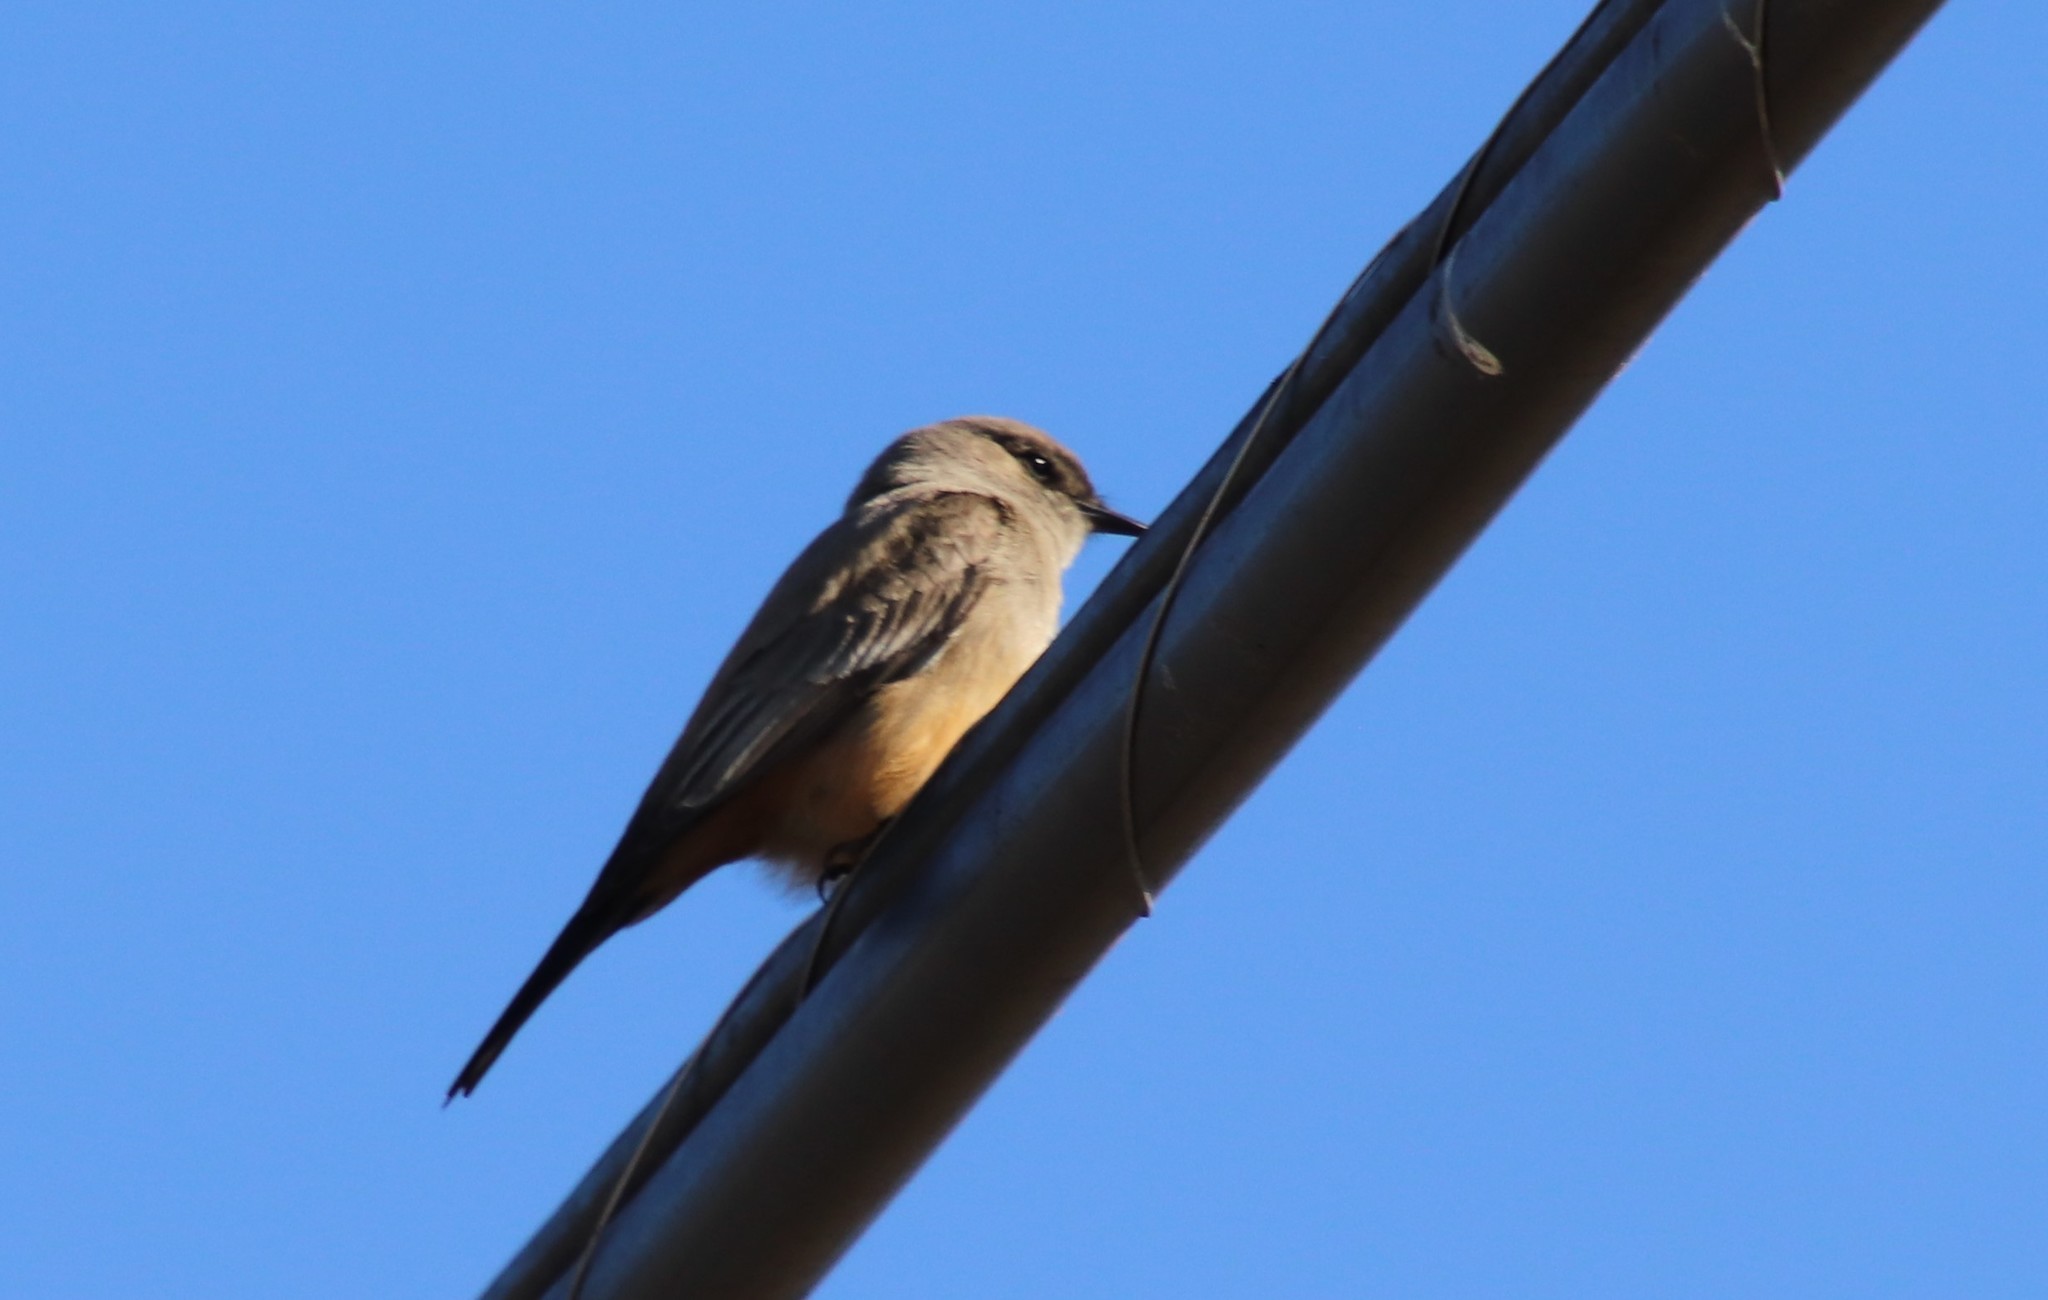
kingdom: Animalia
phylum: Chordata
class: Aves
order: Passeriformes
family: Tyrannidae
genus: Sayornis
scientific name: Sayornis saya
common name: Say's phoebe
